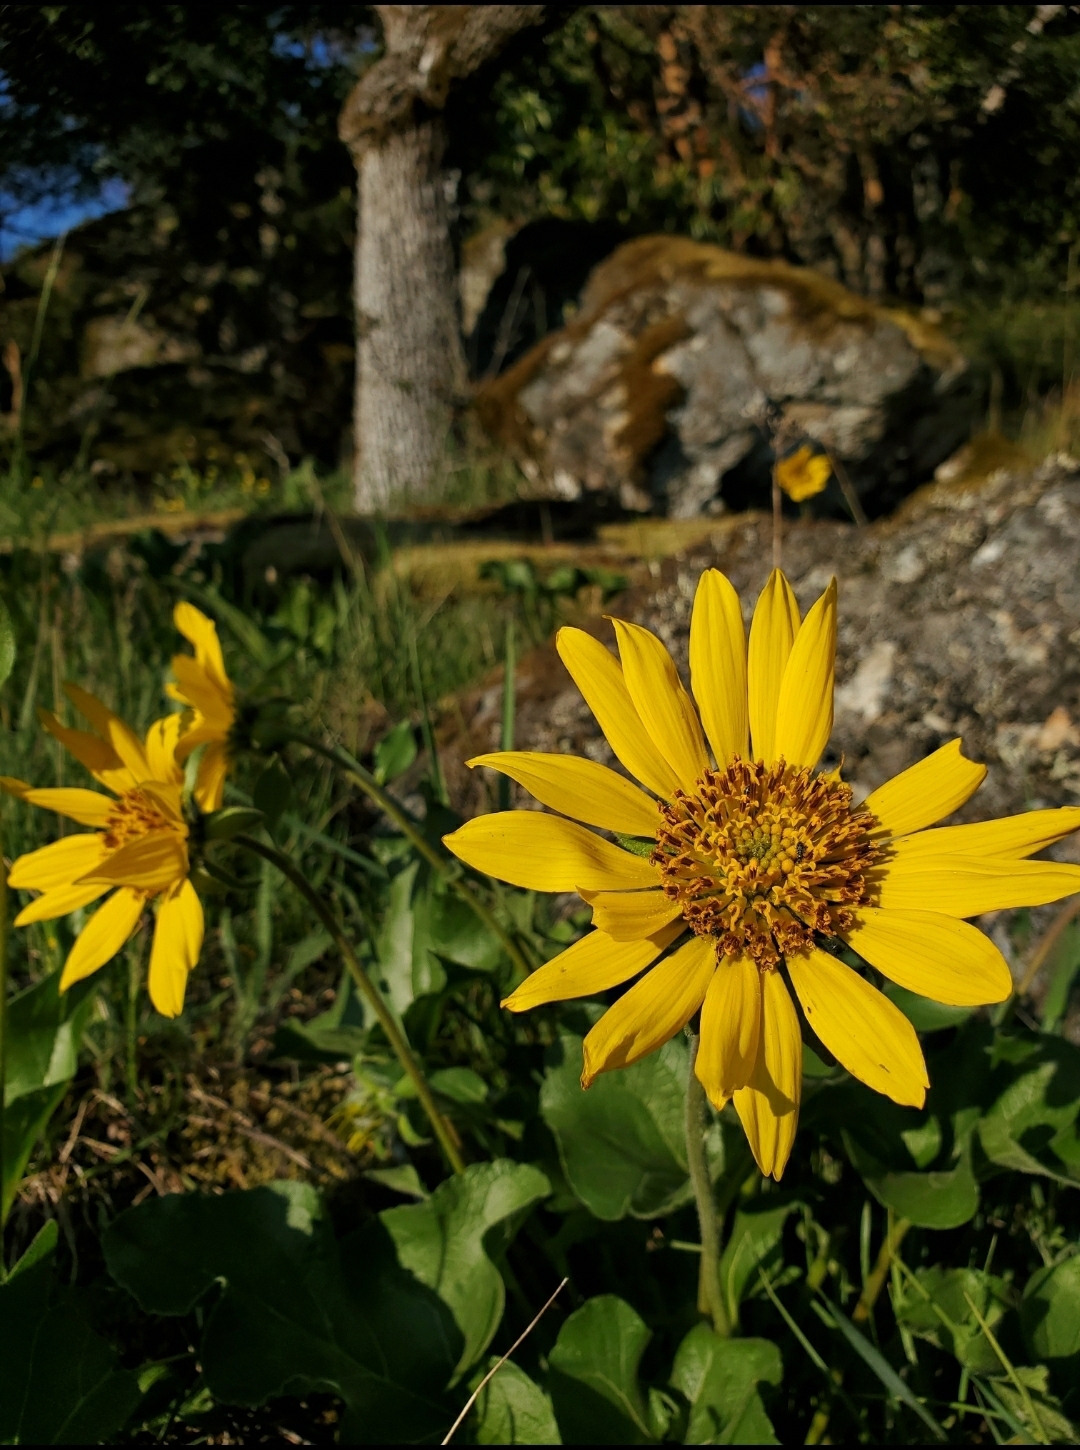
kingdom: Plantae
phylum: Tracheophyta
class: Magnoliopsida
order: Asterales
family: Asteraceae
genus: Balsamorhiza
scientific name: Balsamorhiza deltoidea
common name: Deltoid balsamroot
